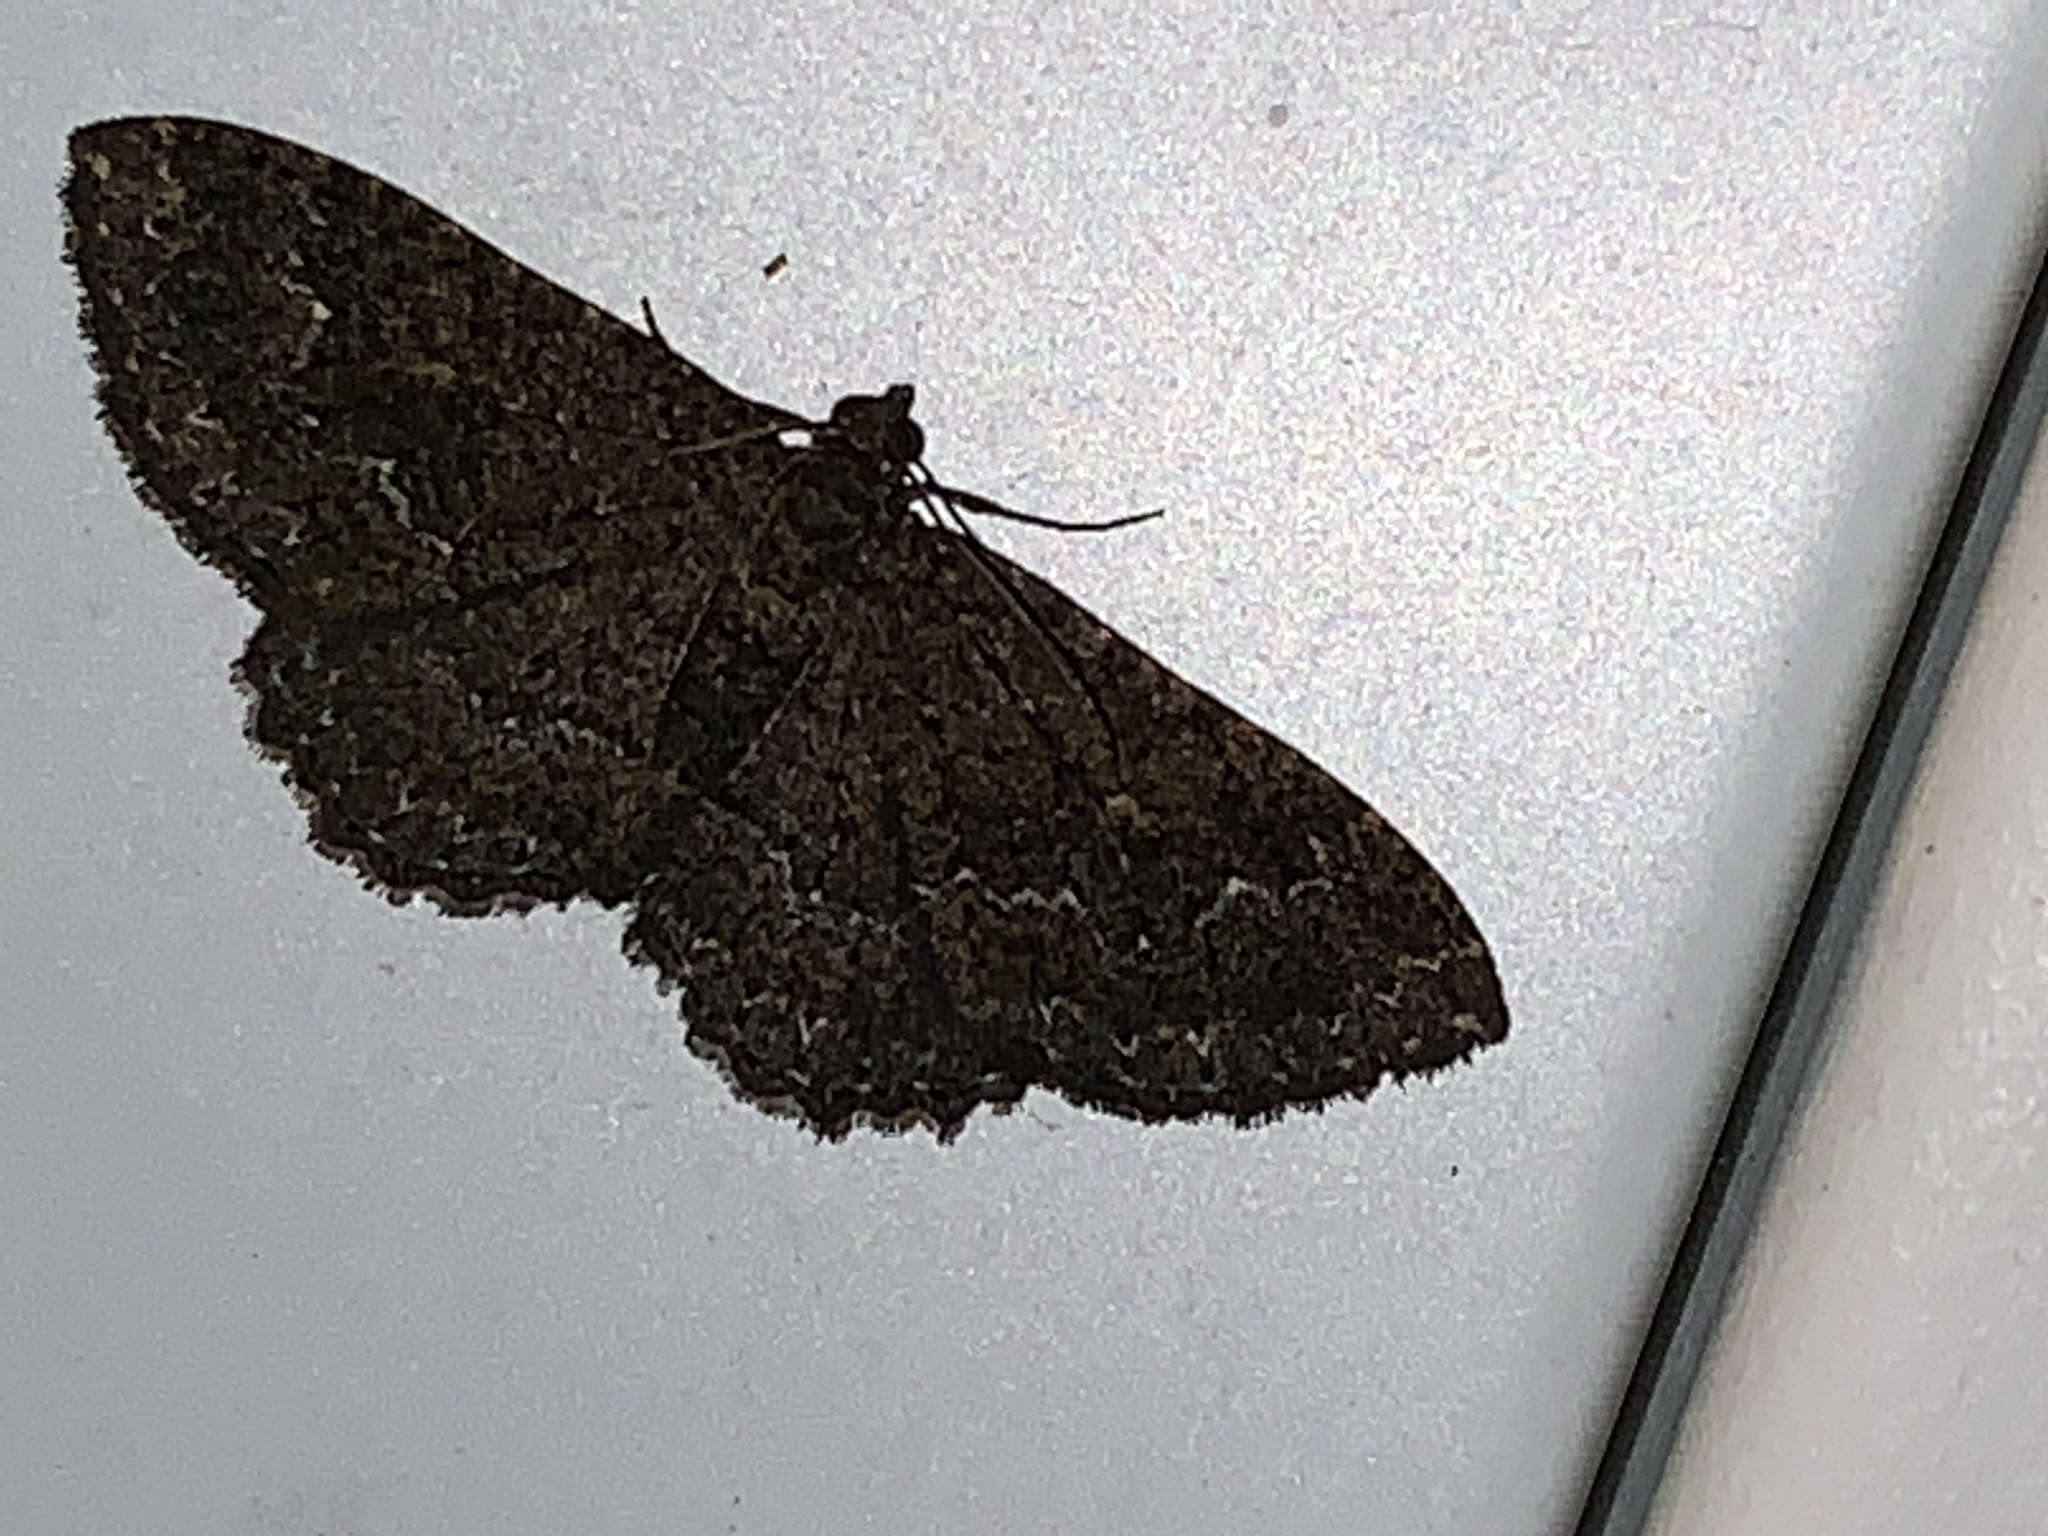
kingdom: Animalia
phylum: Arthropoda
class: Insecta
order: Lepidoptera
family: Geometridae
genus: Disclisioprocta
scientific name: Disclisioprocta stellata
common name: Somber carpet
